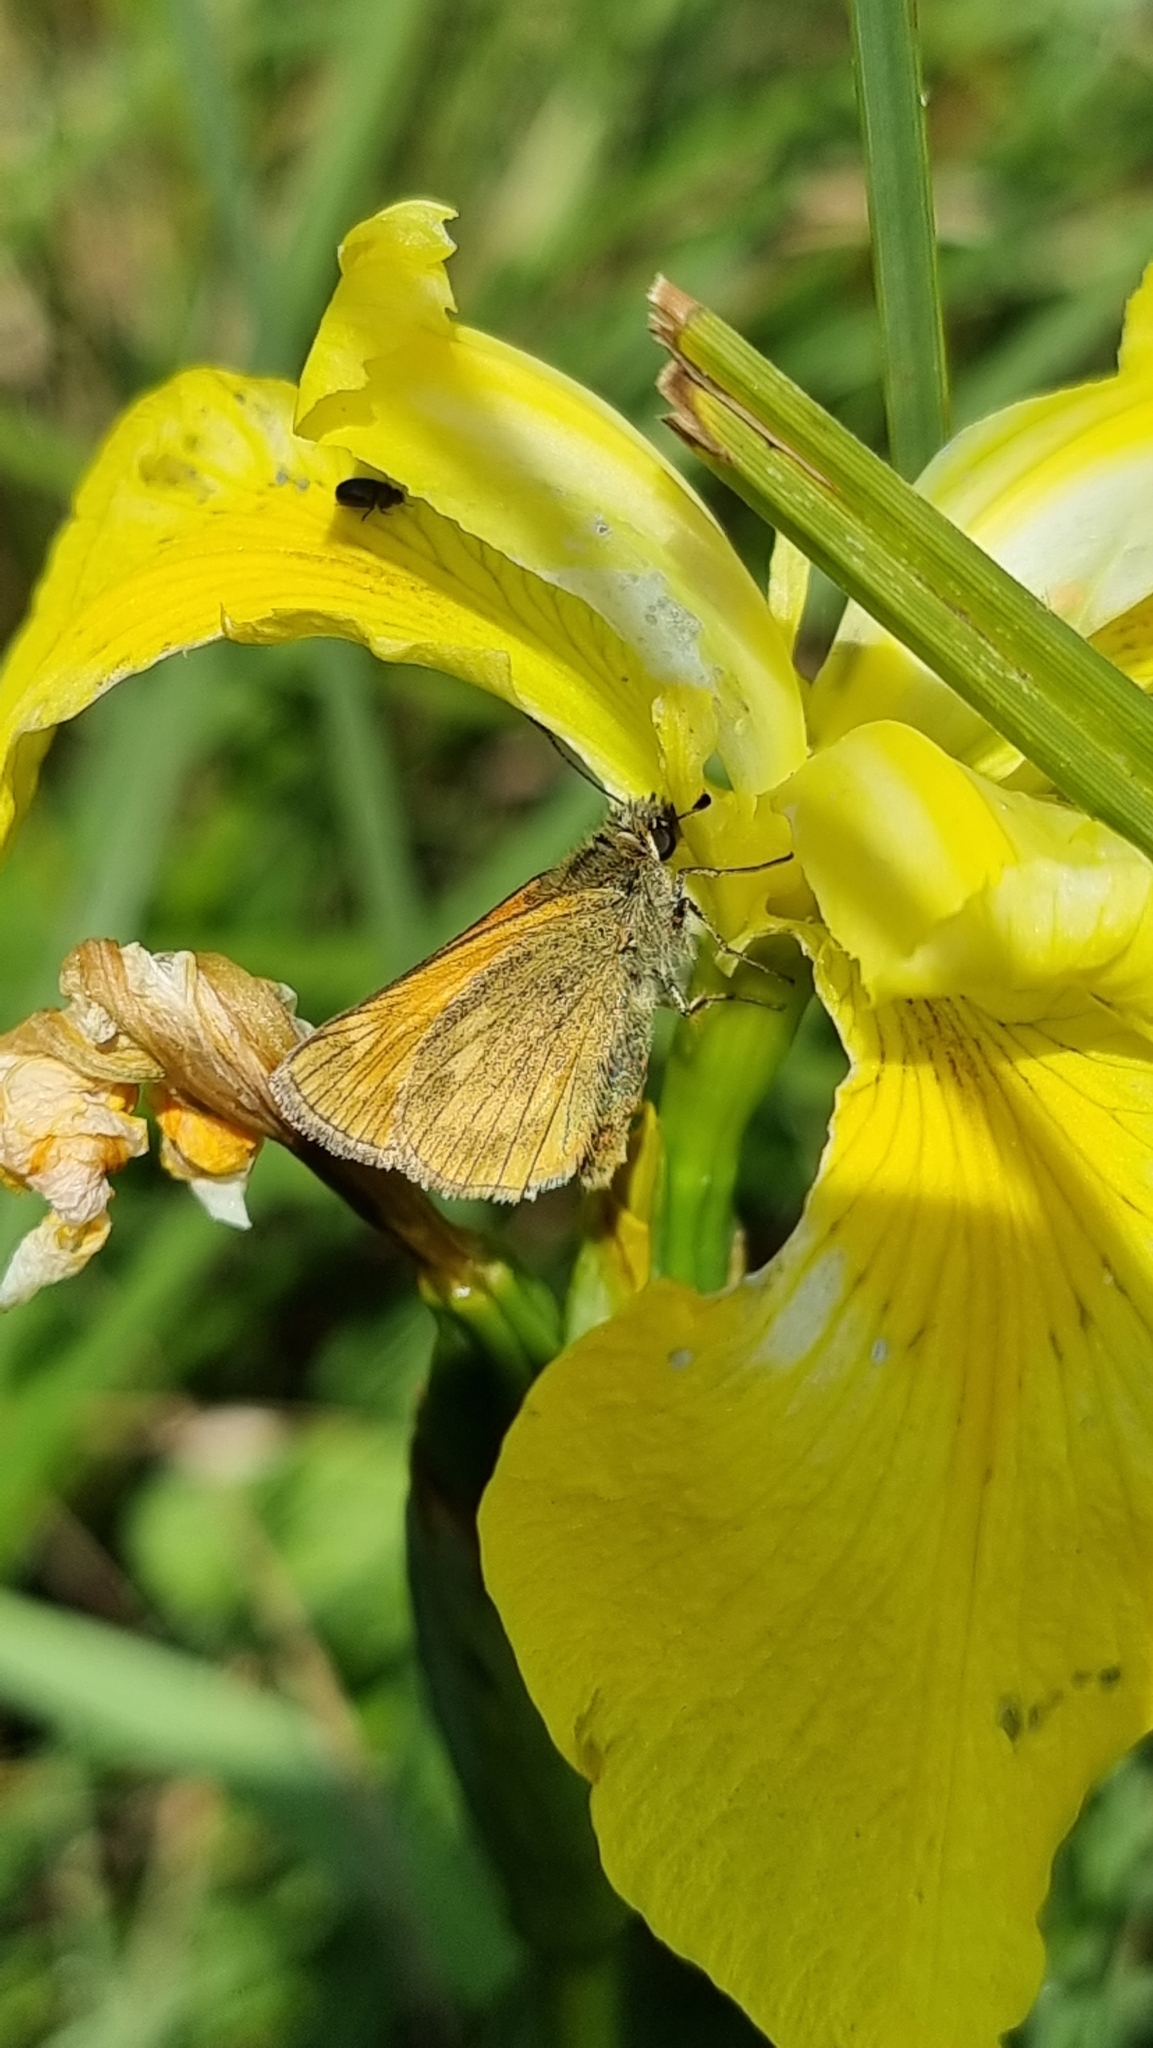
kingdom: Animalia
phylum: Arthropoda
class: Insecta
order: Lepidoptera
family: Hesperiidae
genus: Ochlodes
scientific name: Ochlodes venata
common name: Large skipper
